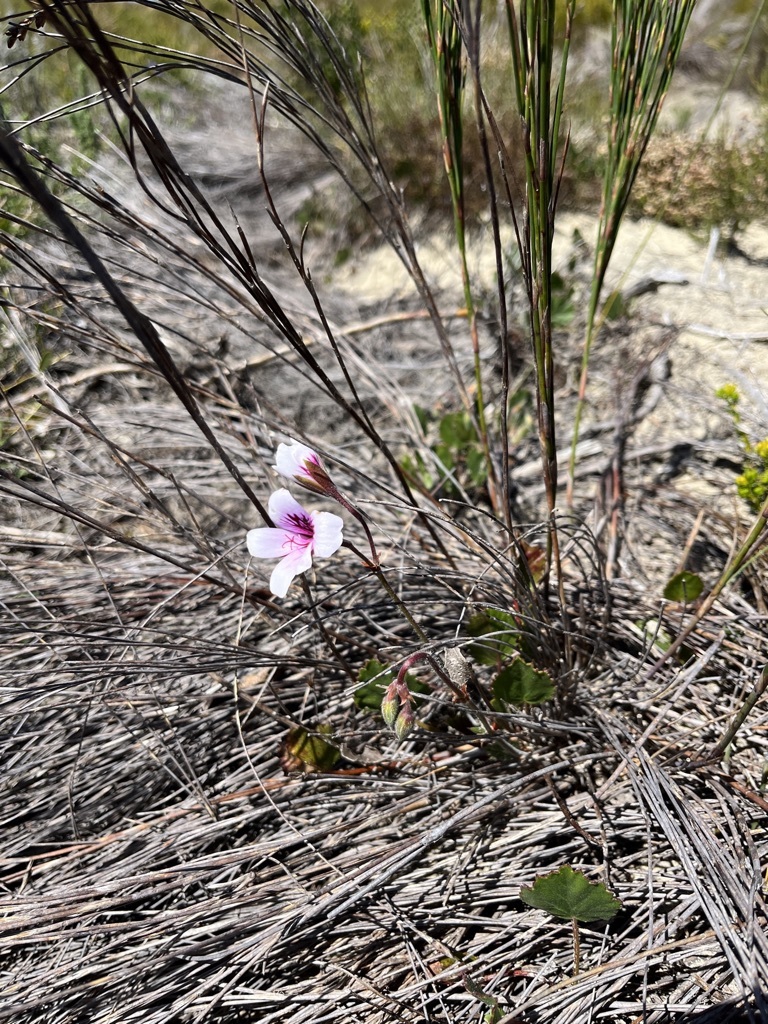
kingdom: Plantae
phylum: Tracheophyta
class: Magnoliopsida
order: Geraniales
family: Geraniaceae
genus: Pelargonium
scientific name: Pelargonium elegans
